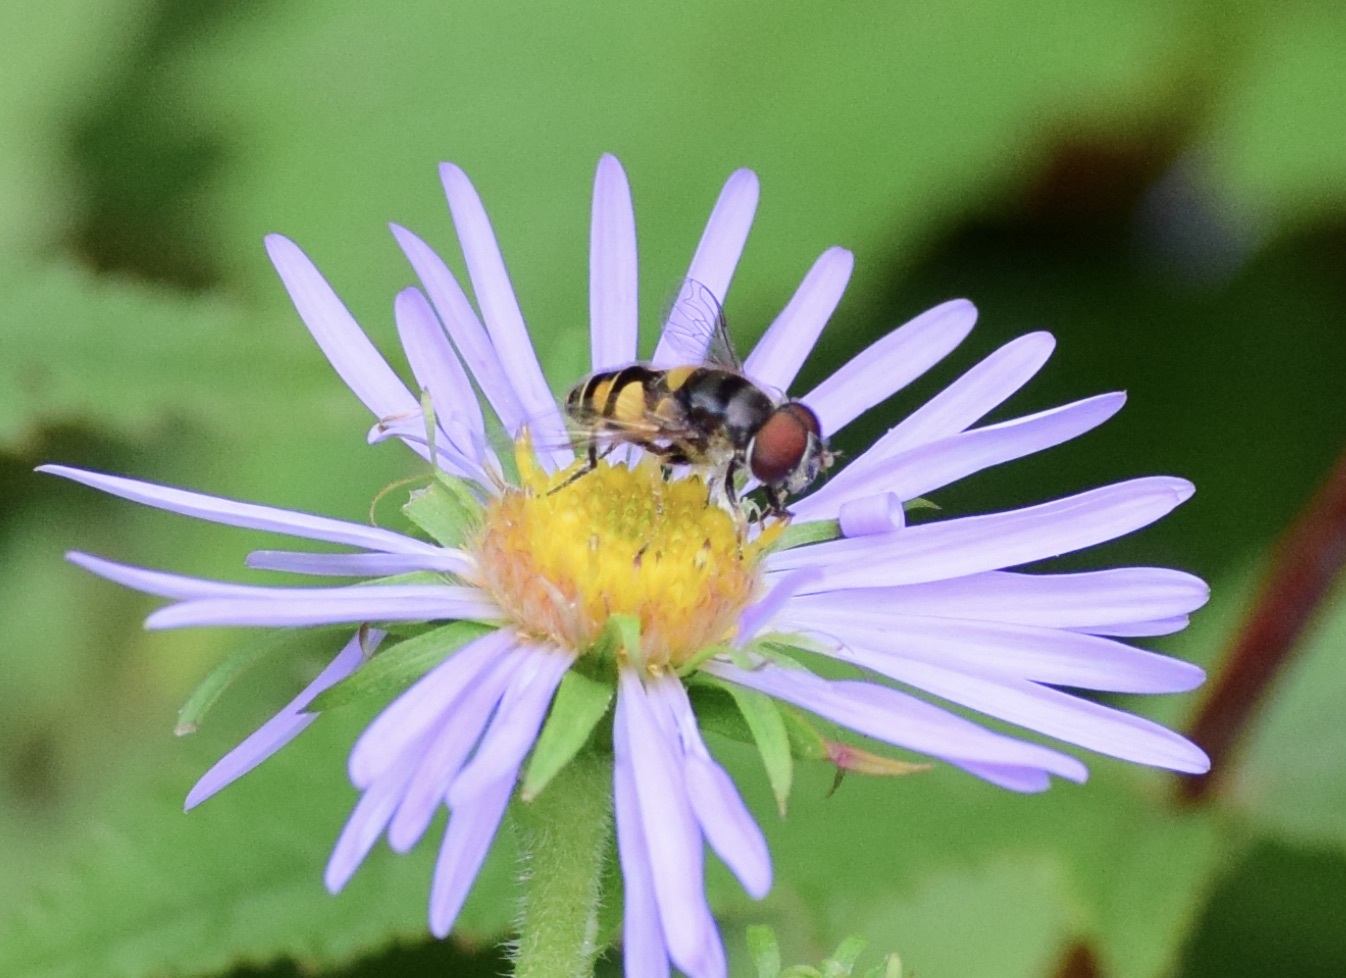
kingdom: Animalia
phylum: Arthropoda
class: Insecta
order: Diptera
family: Syrphidae
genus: Eristalis
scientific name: Eristalis transversa
